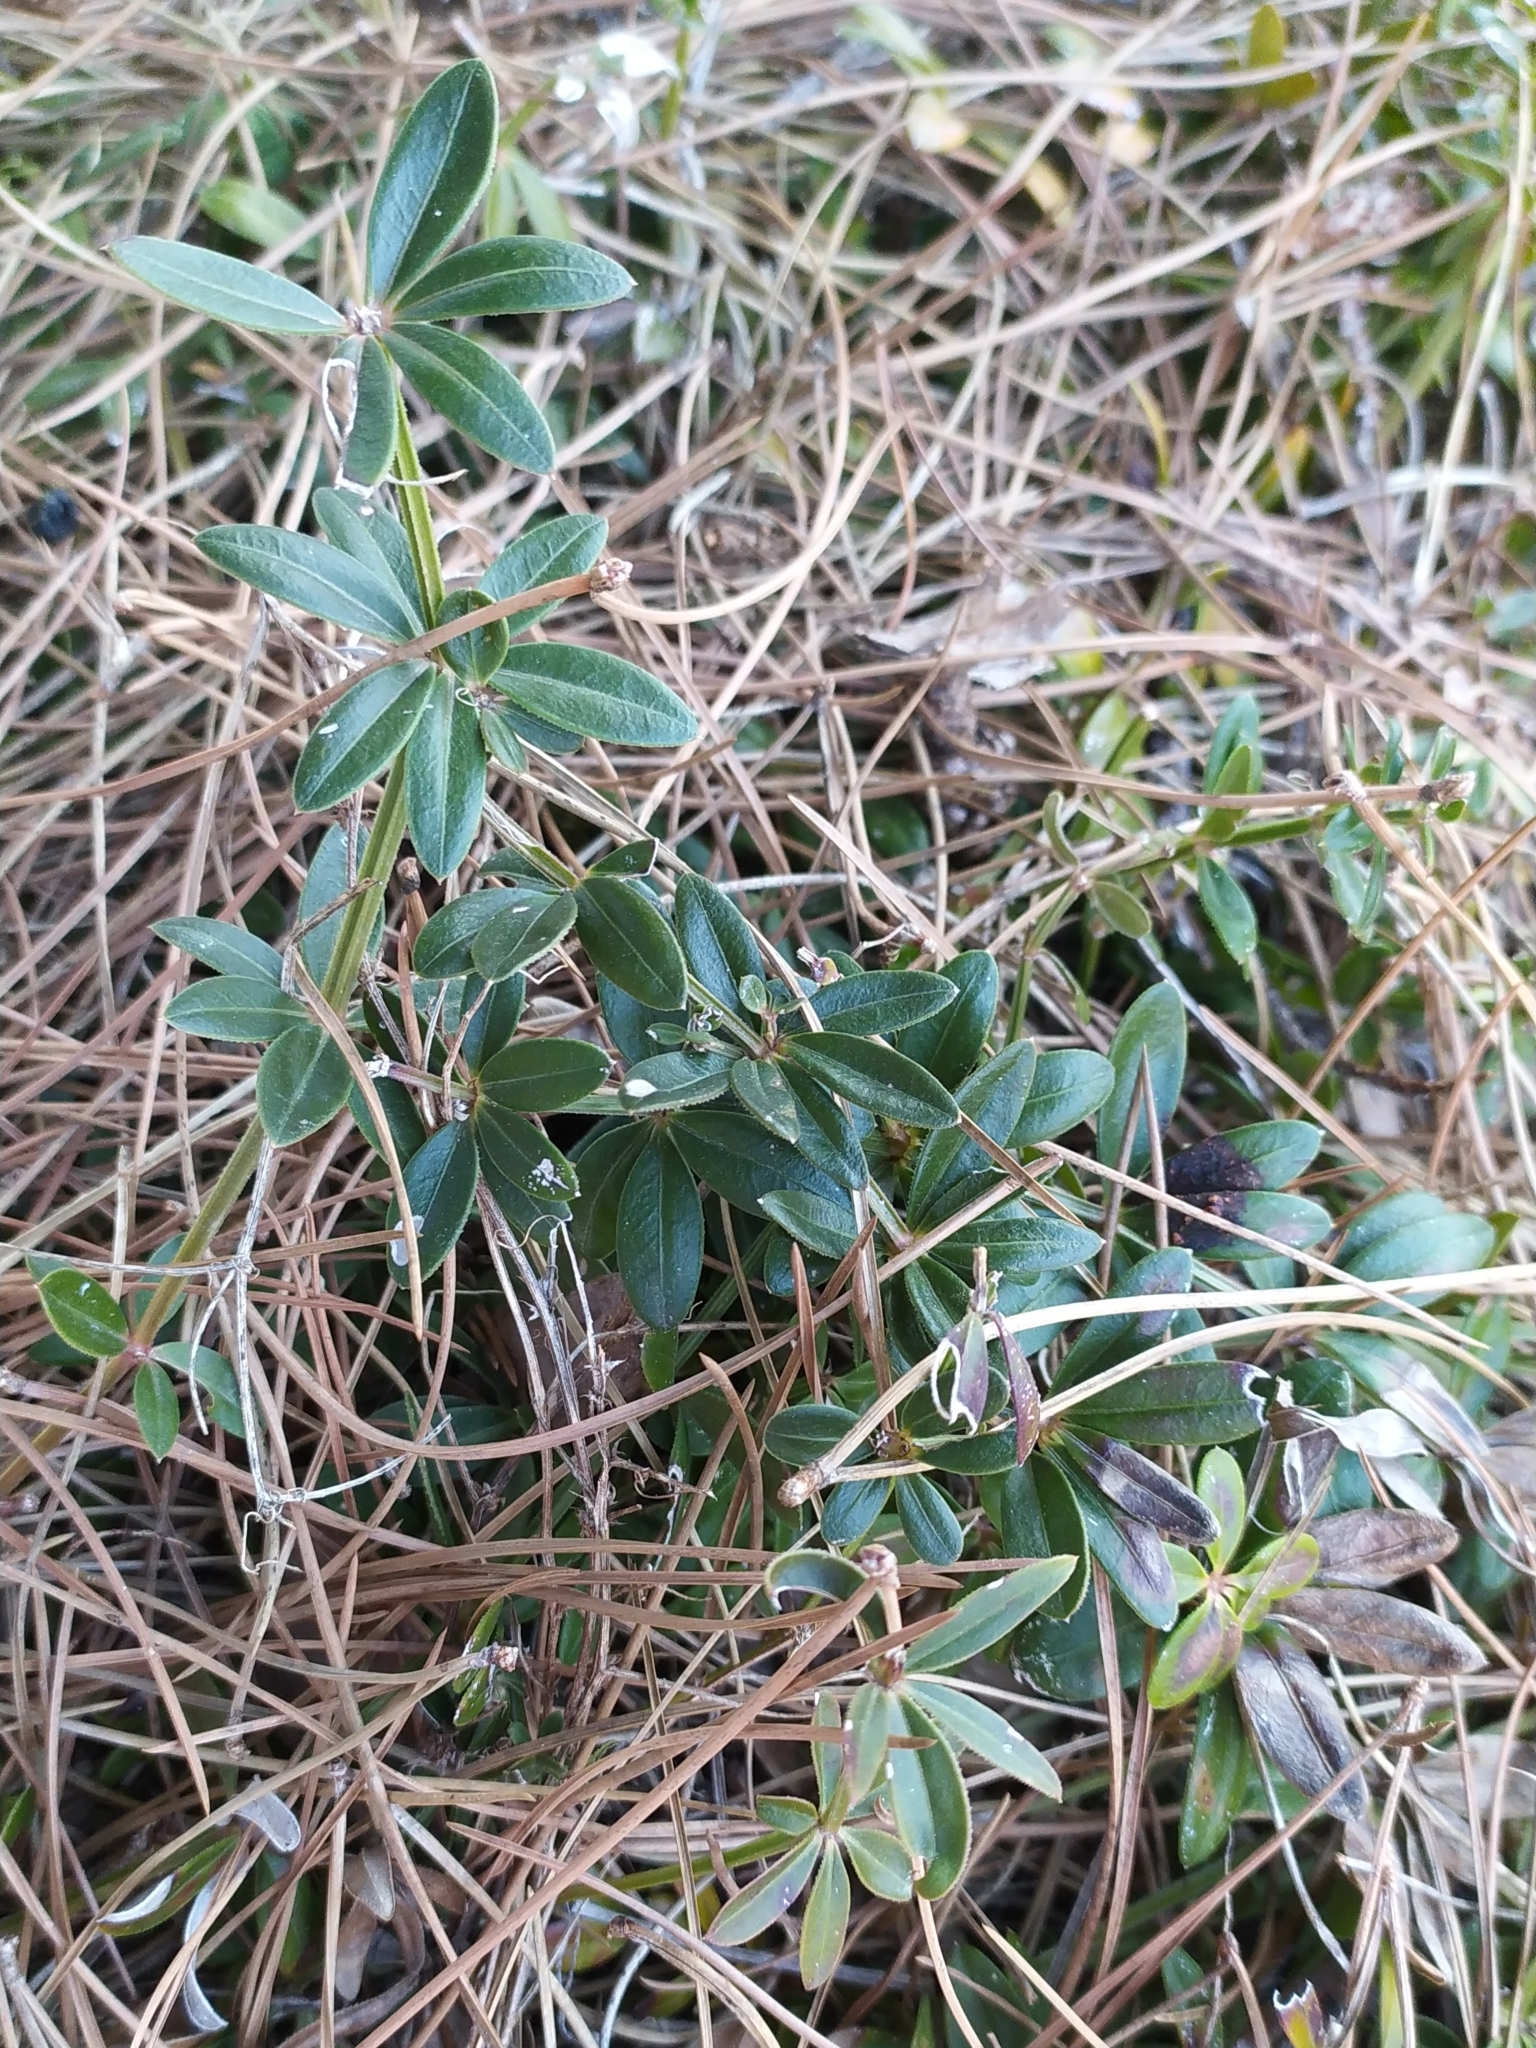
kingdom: Plantae
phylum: Tracheophyta
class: Magnoliopsida
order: Gentianales
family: Rubiaceae
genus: Rubia
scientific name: Rubia peregrina
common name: Wild madder
